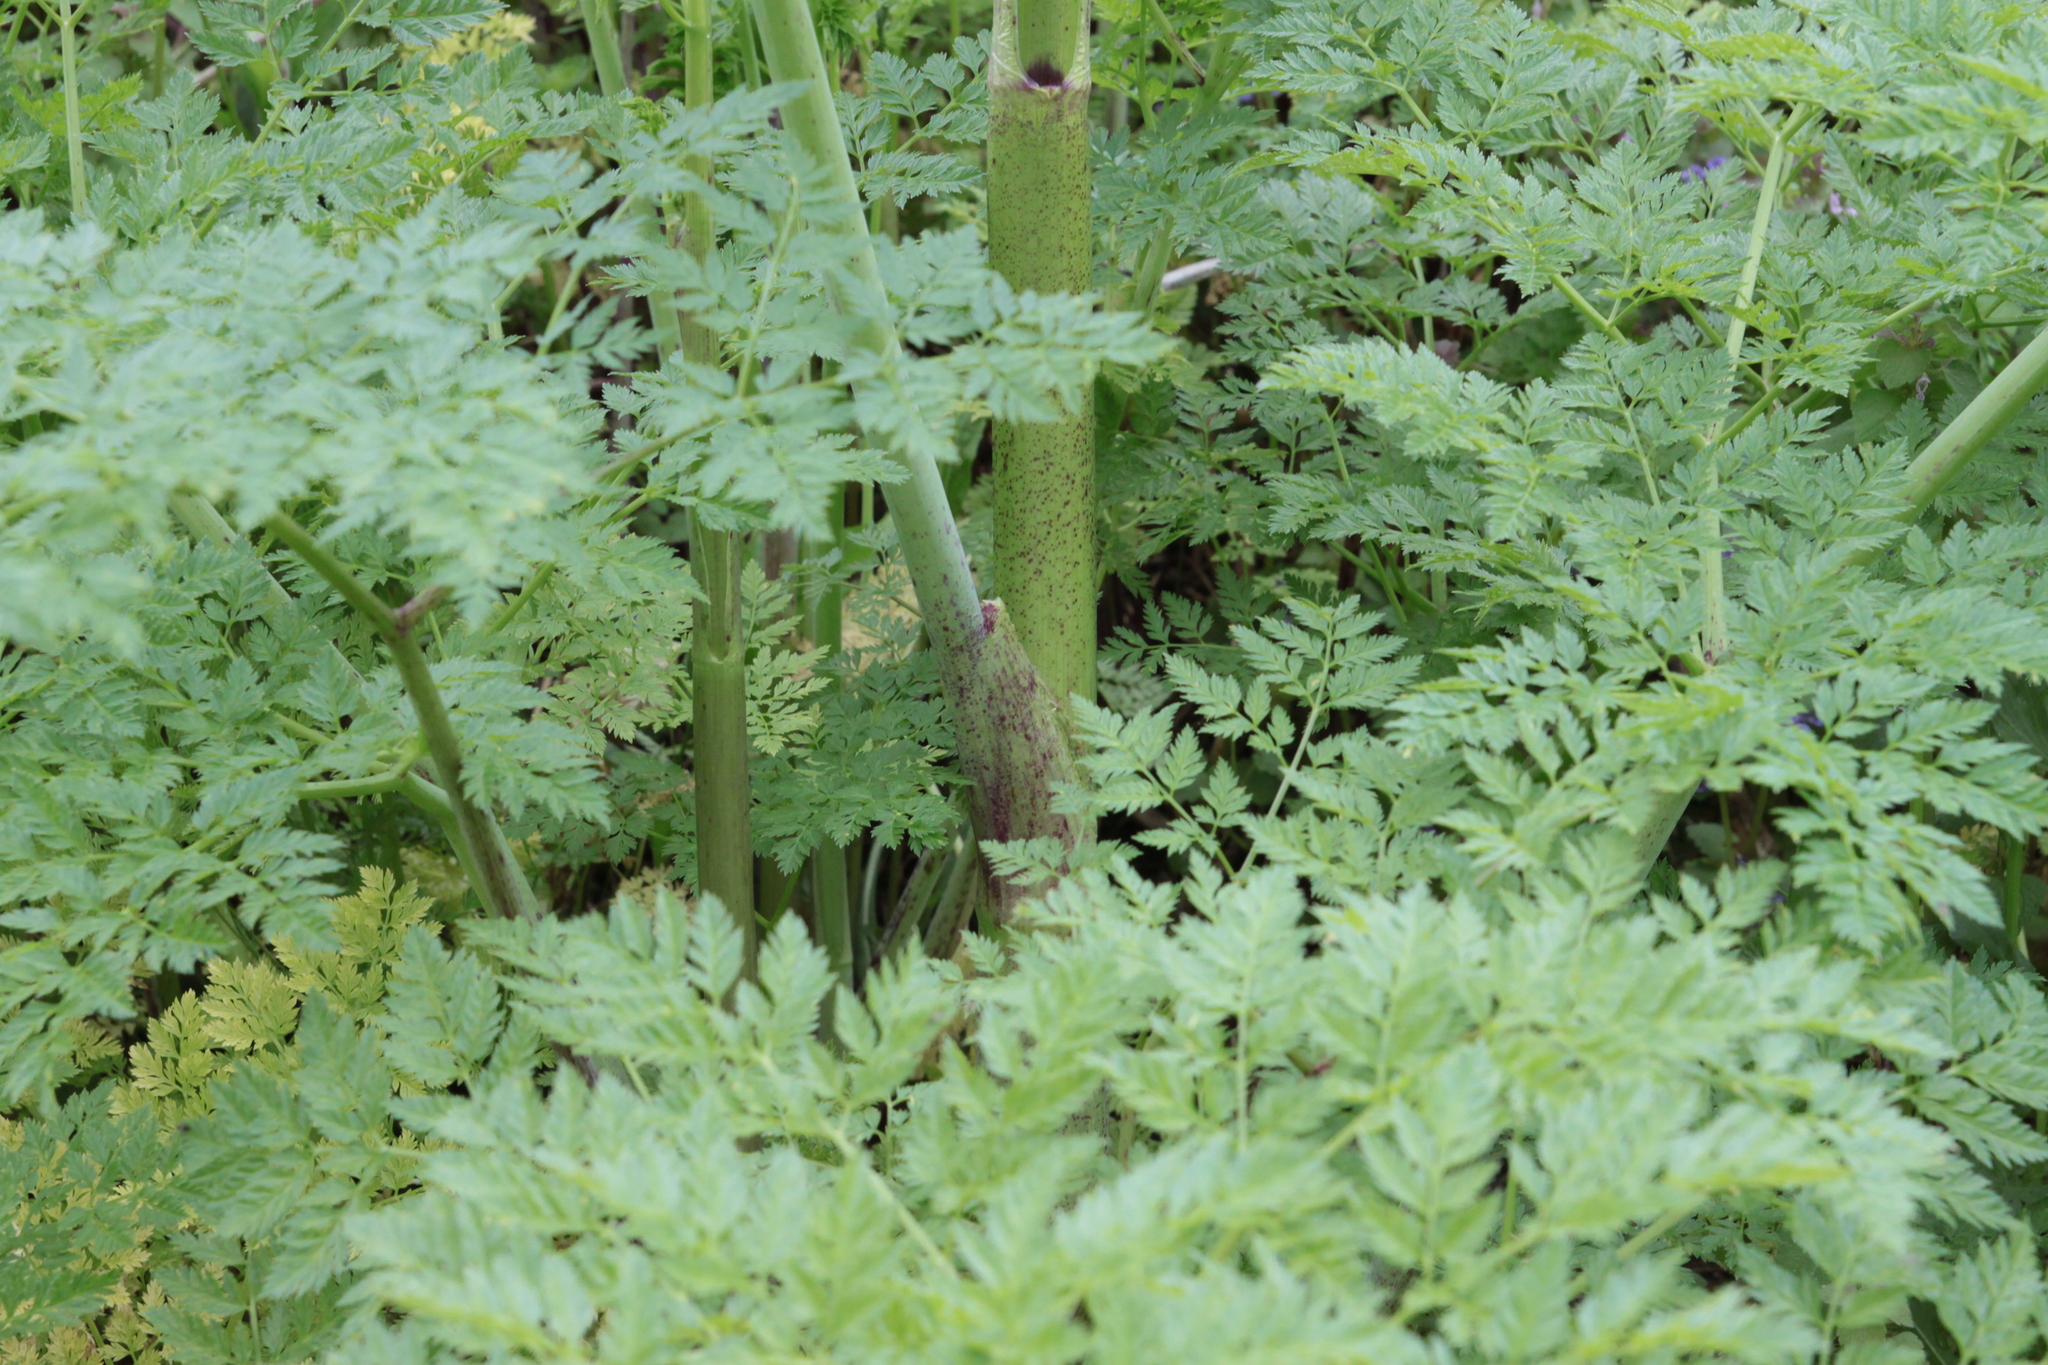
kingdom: Plantae
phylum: Tracheophyta
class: Magnoliopsida
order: Apiales
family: Apiaceae
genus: Conium
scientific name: Conium maculatum
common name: Hemlock
